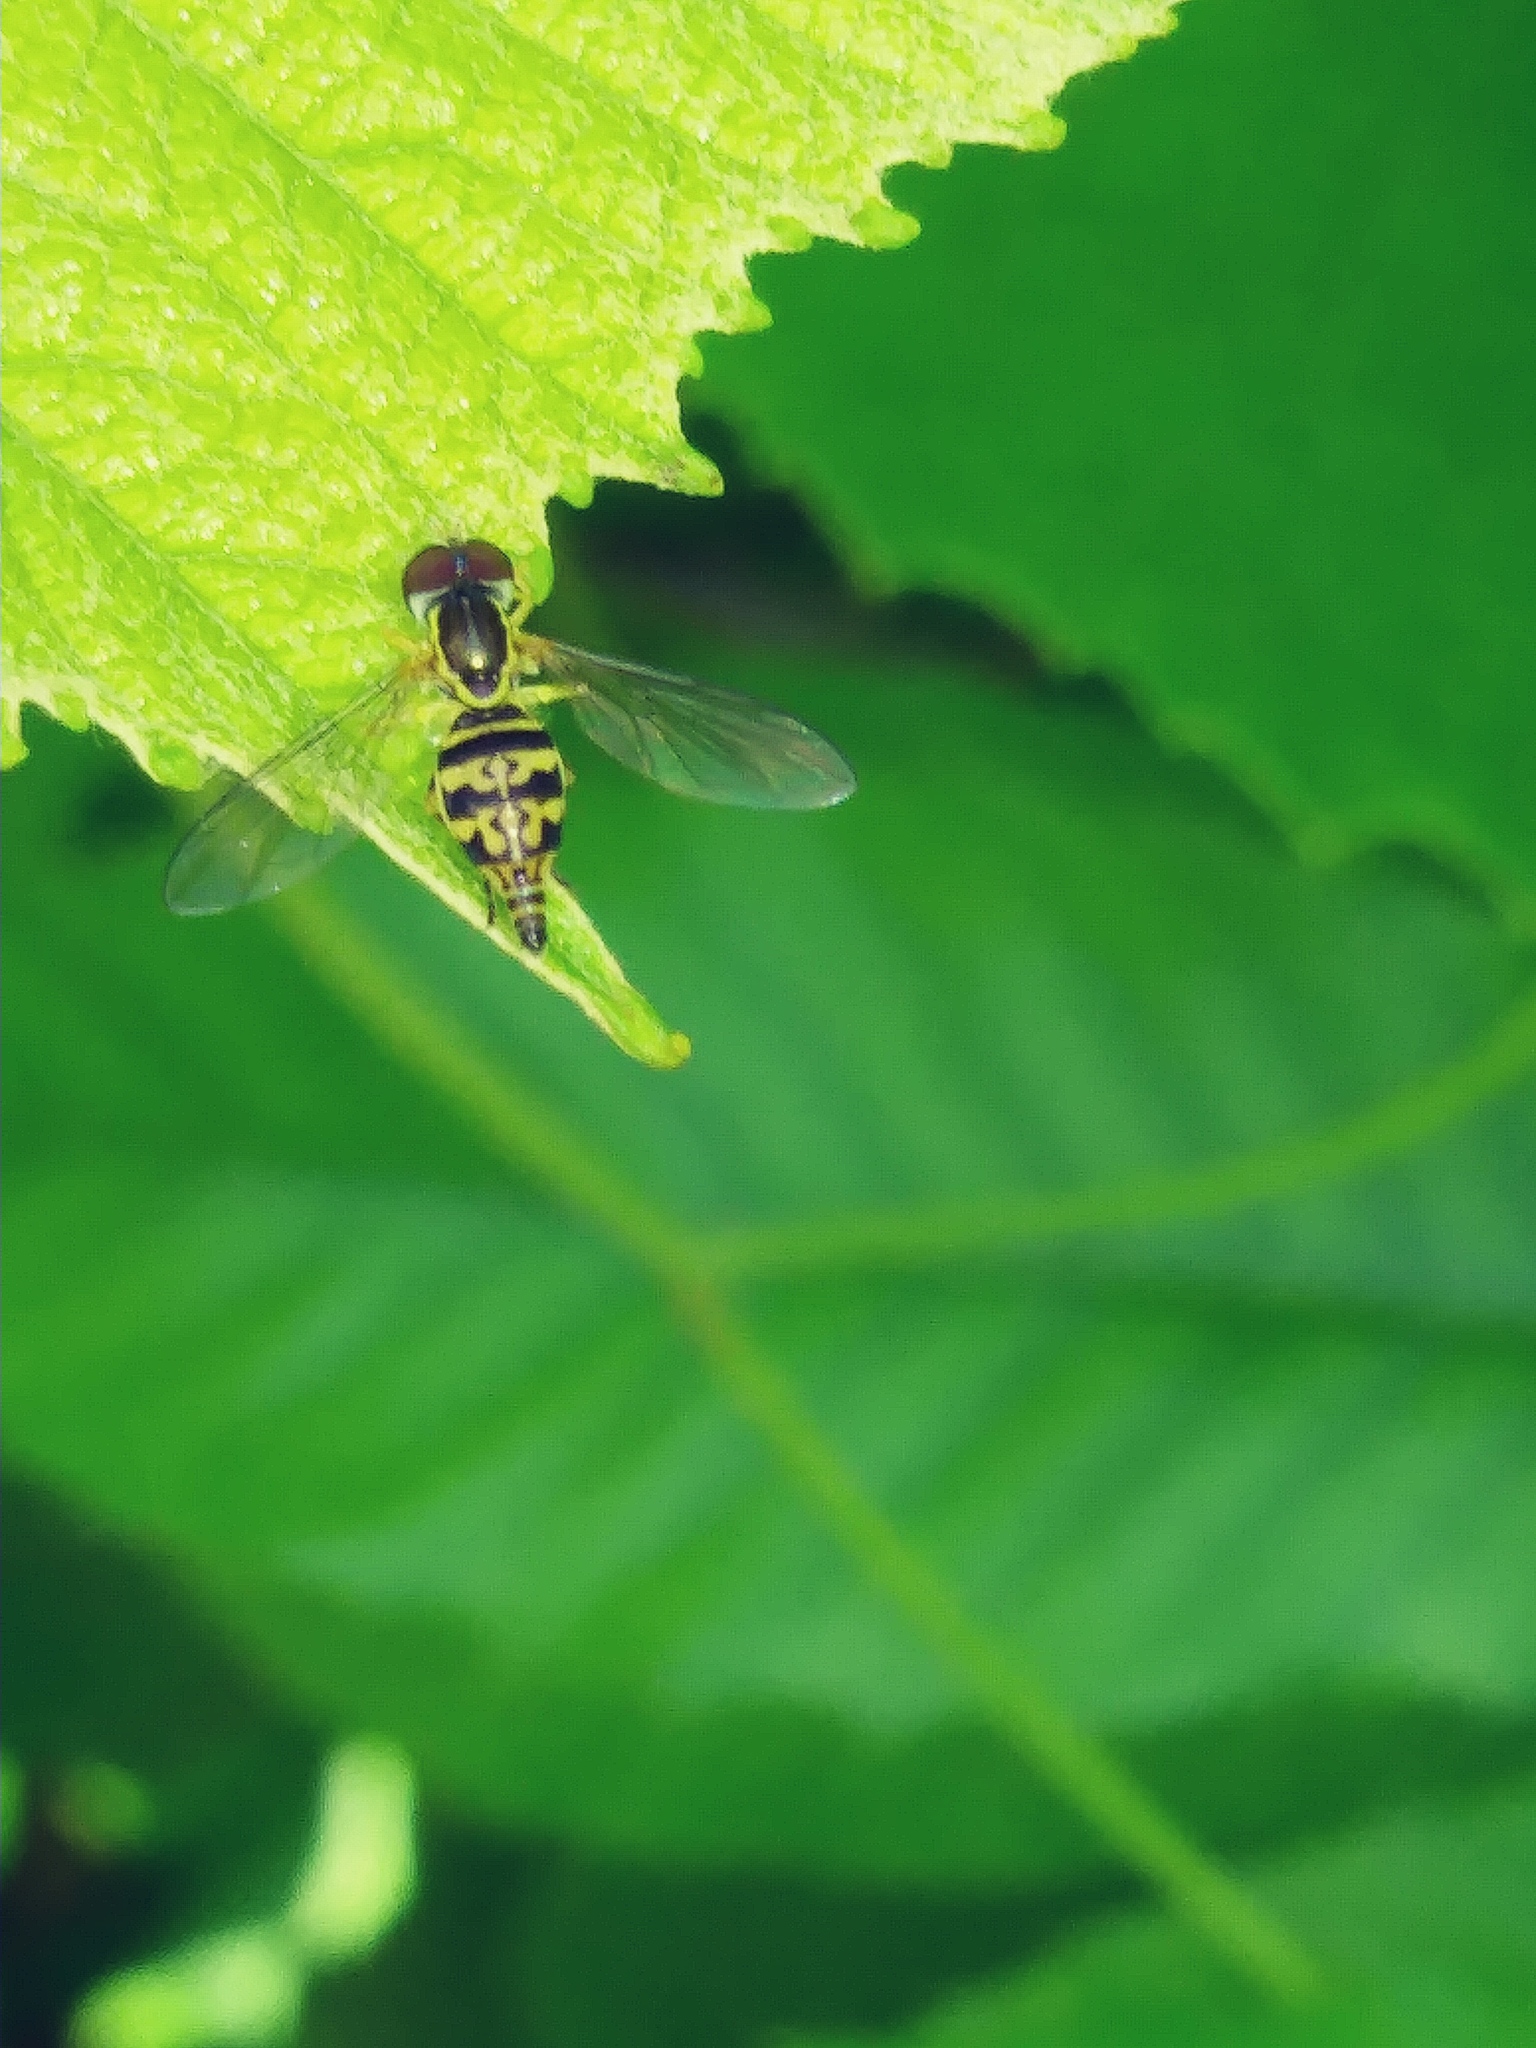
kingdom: Animalia
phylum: Arthropoda
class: Insecta
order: Diptera
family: Syrphidae
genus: Toxomerus
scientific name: Toxomerus geminatus
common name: Eastern calligrapher
